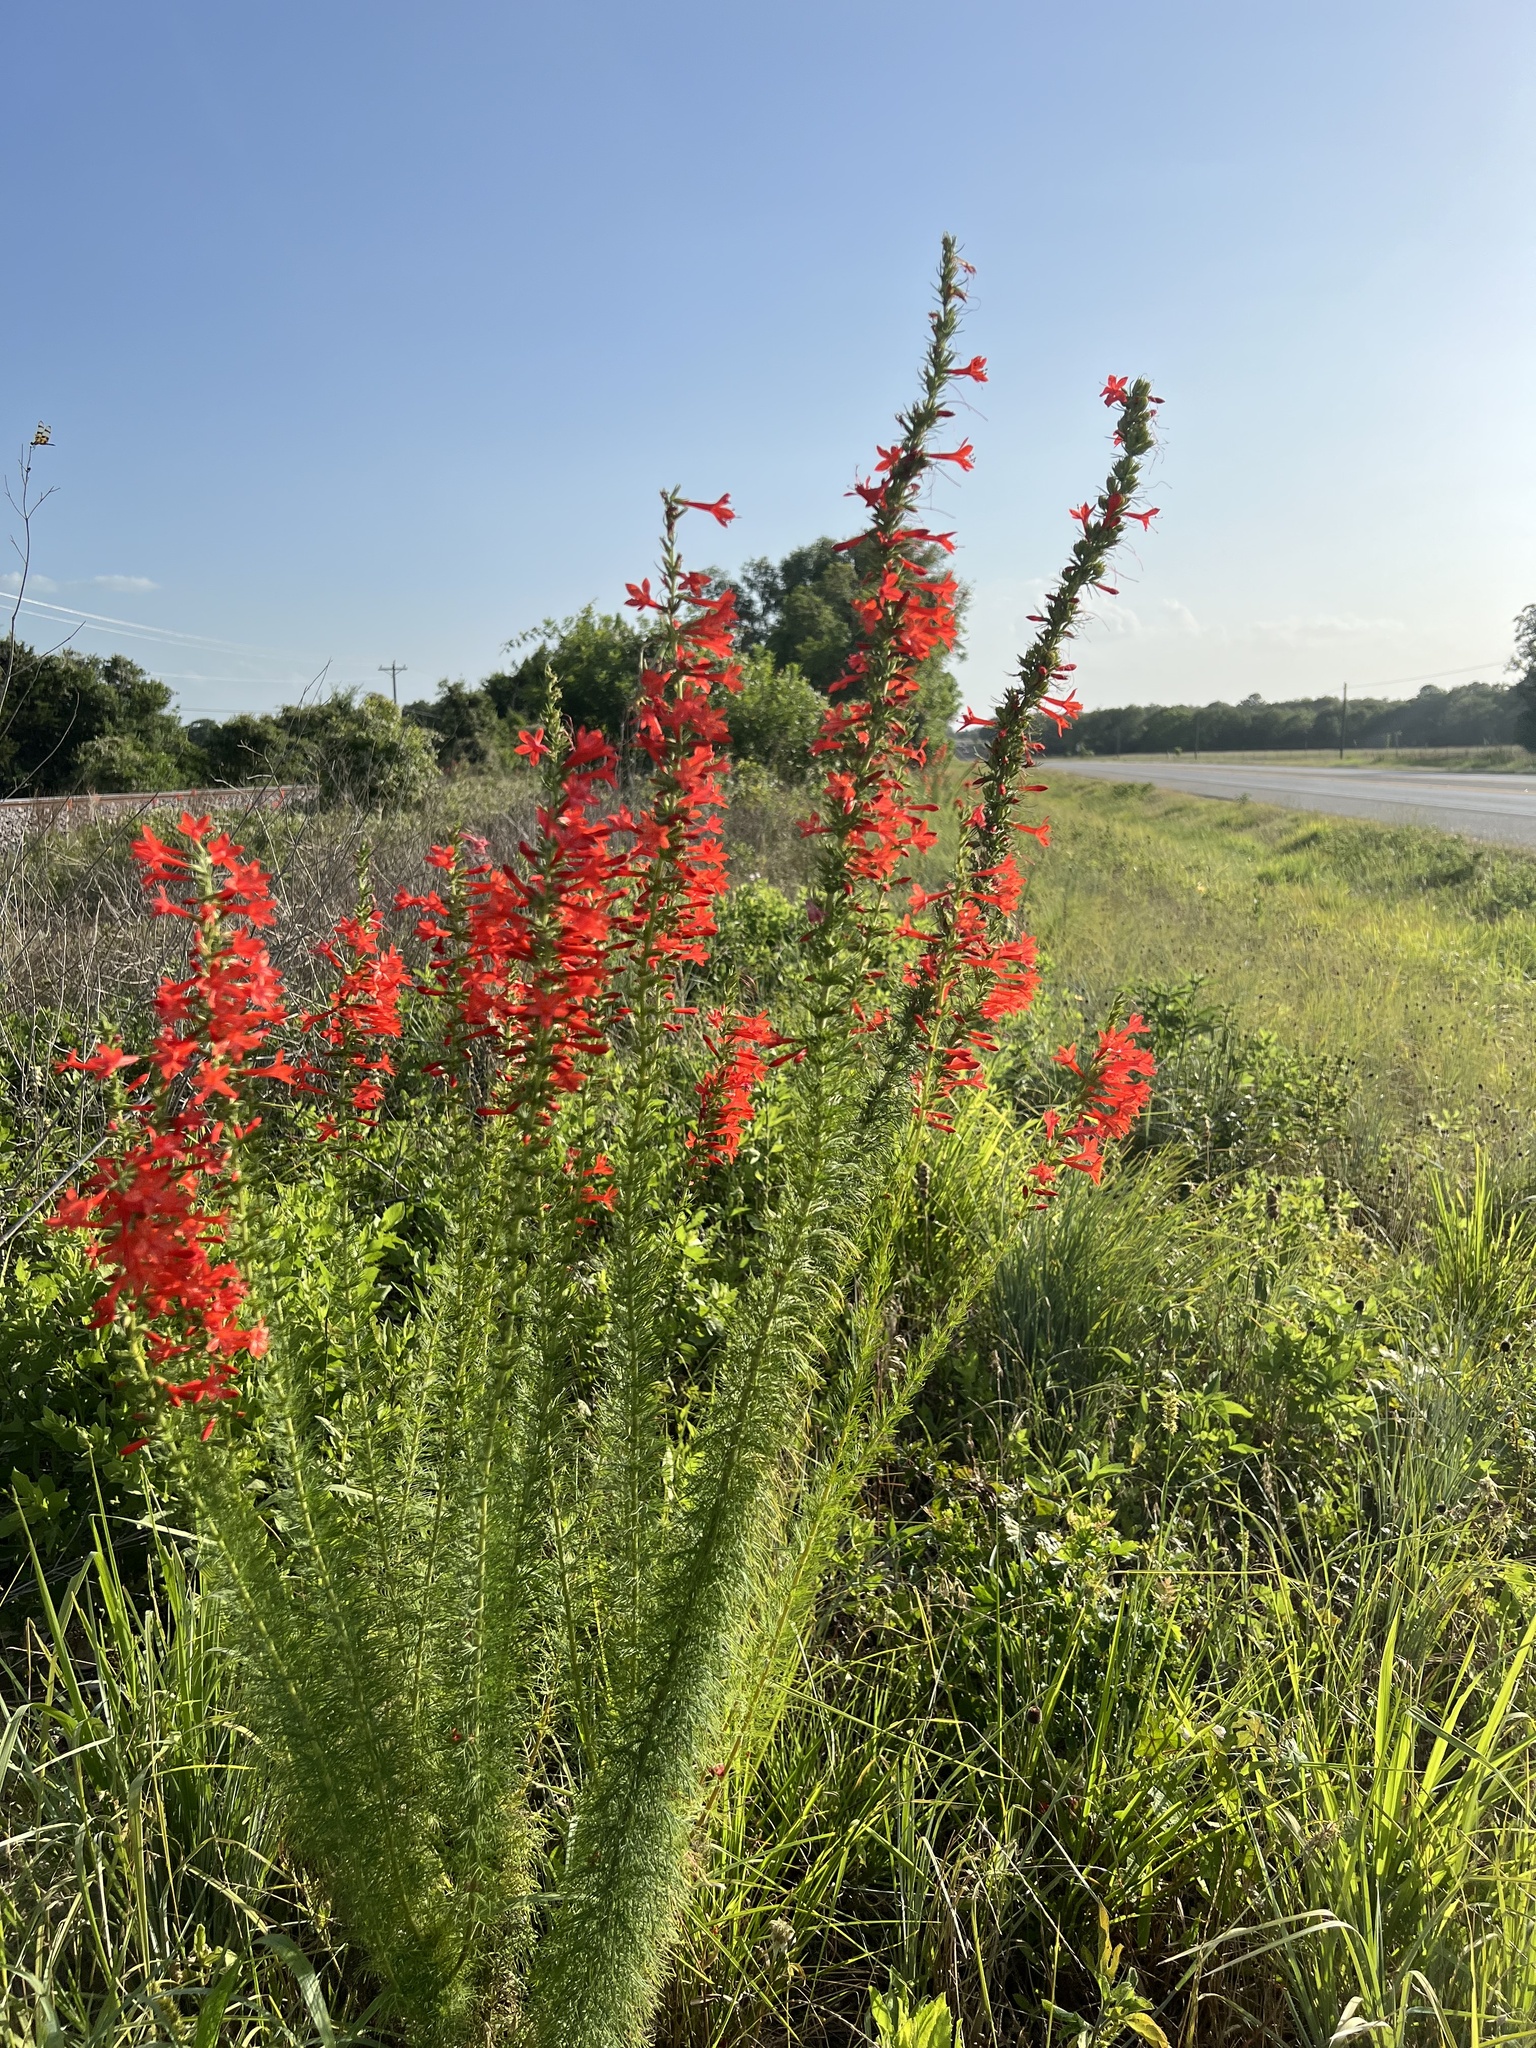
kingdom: Plantae
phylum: Tracheophyta
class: Magnoliopsida
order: Ericales
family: Polemoniaceae
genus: Ipomopsis
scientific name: Ipomopsis rubra
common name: Skyrocket
